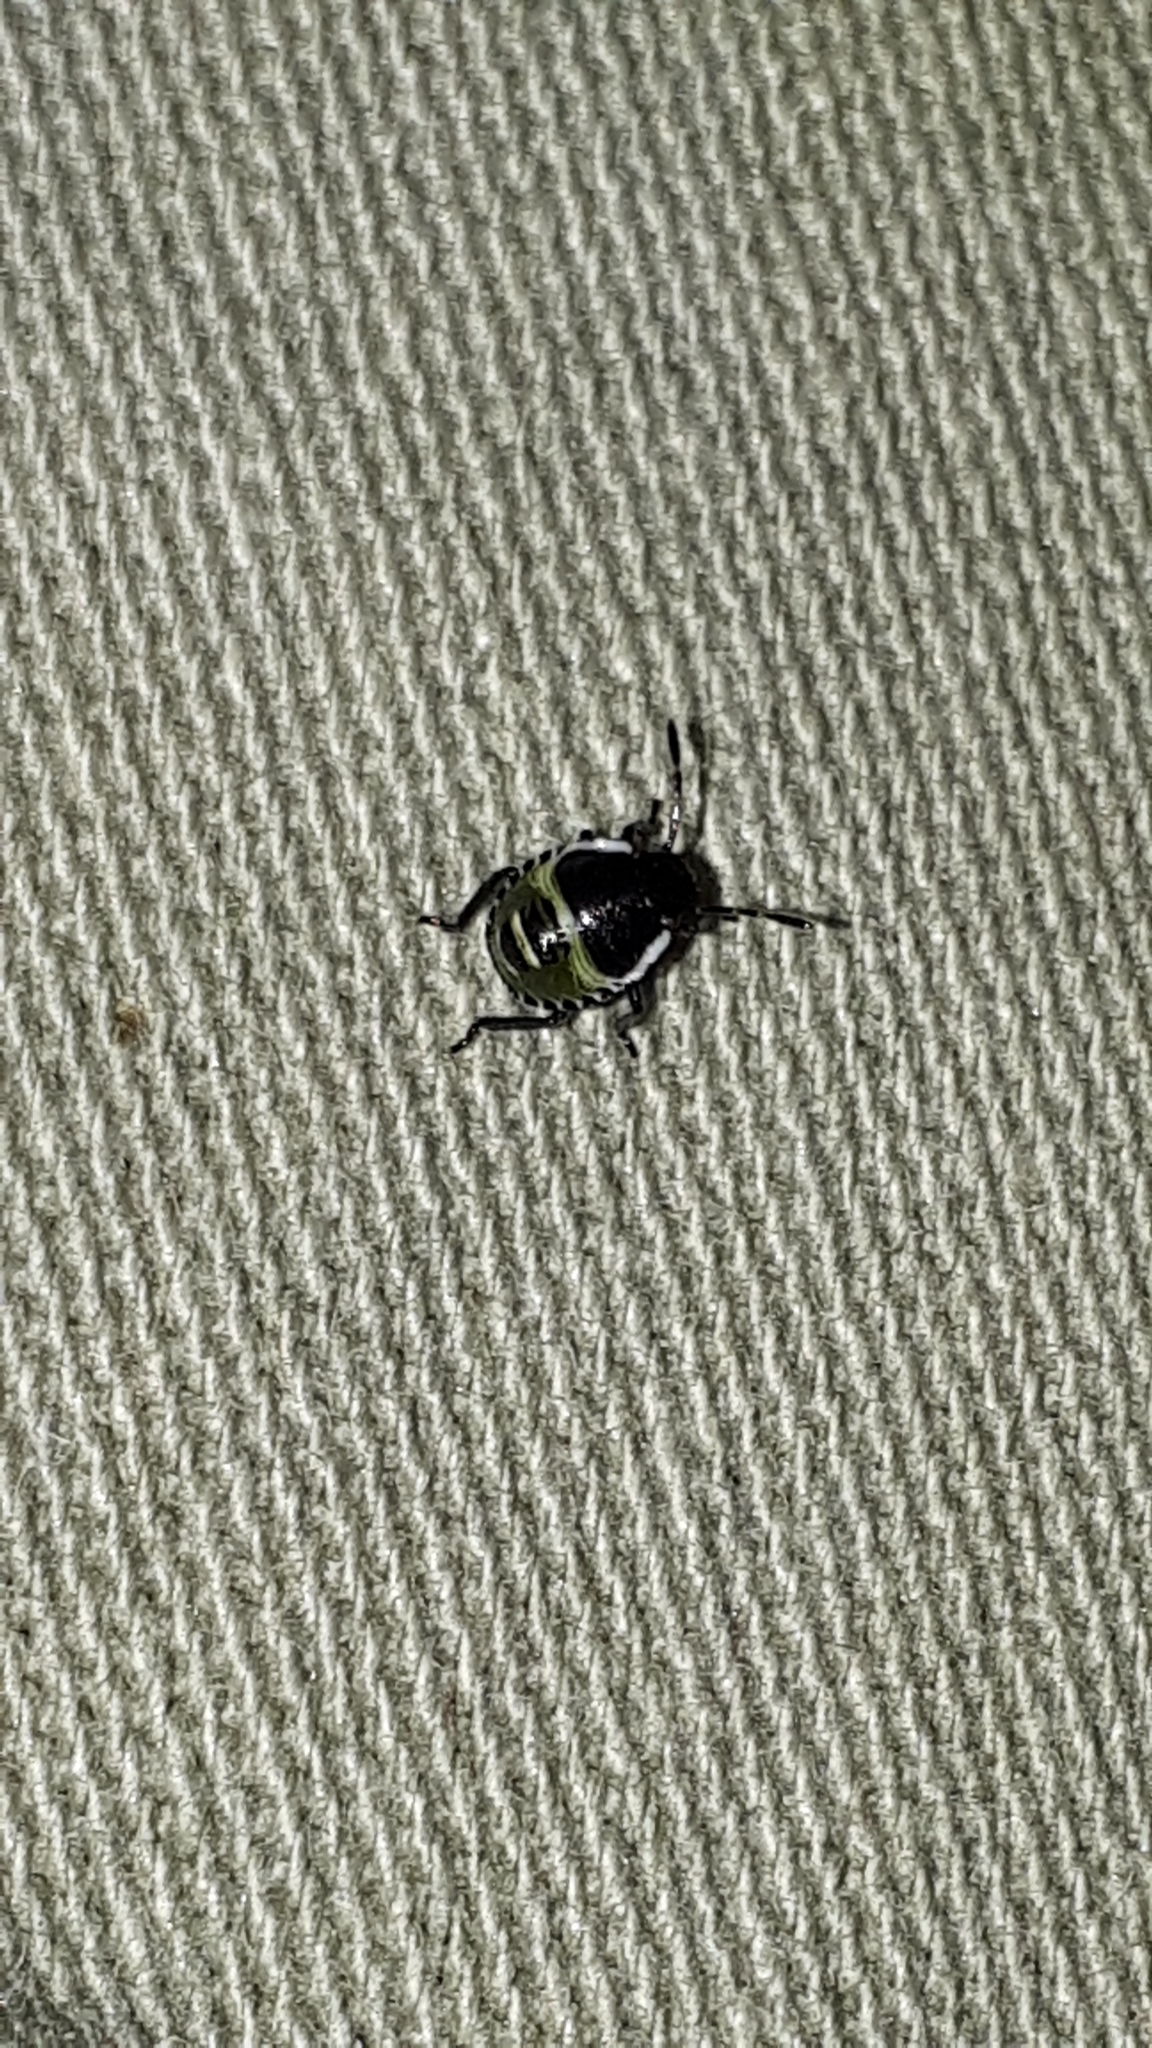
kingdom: Animalia
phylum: Arthropoda
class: Insecta
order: Hemiptera
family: Pentatomidae
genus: Palomena
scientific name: Palomena prasina
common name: Green shieldbug
